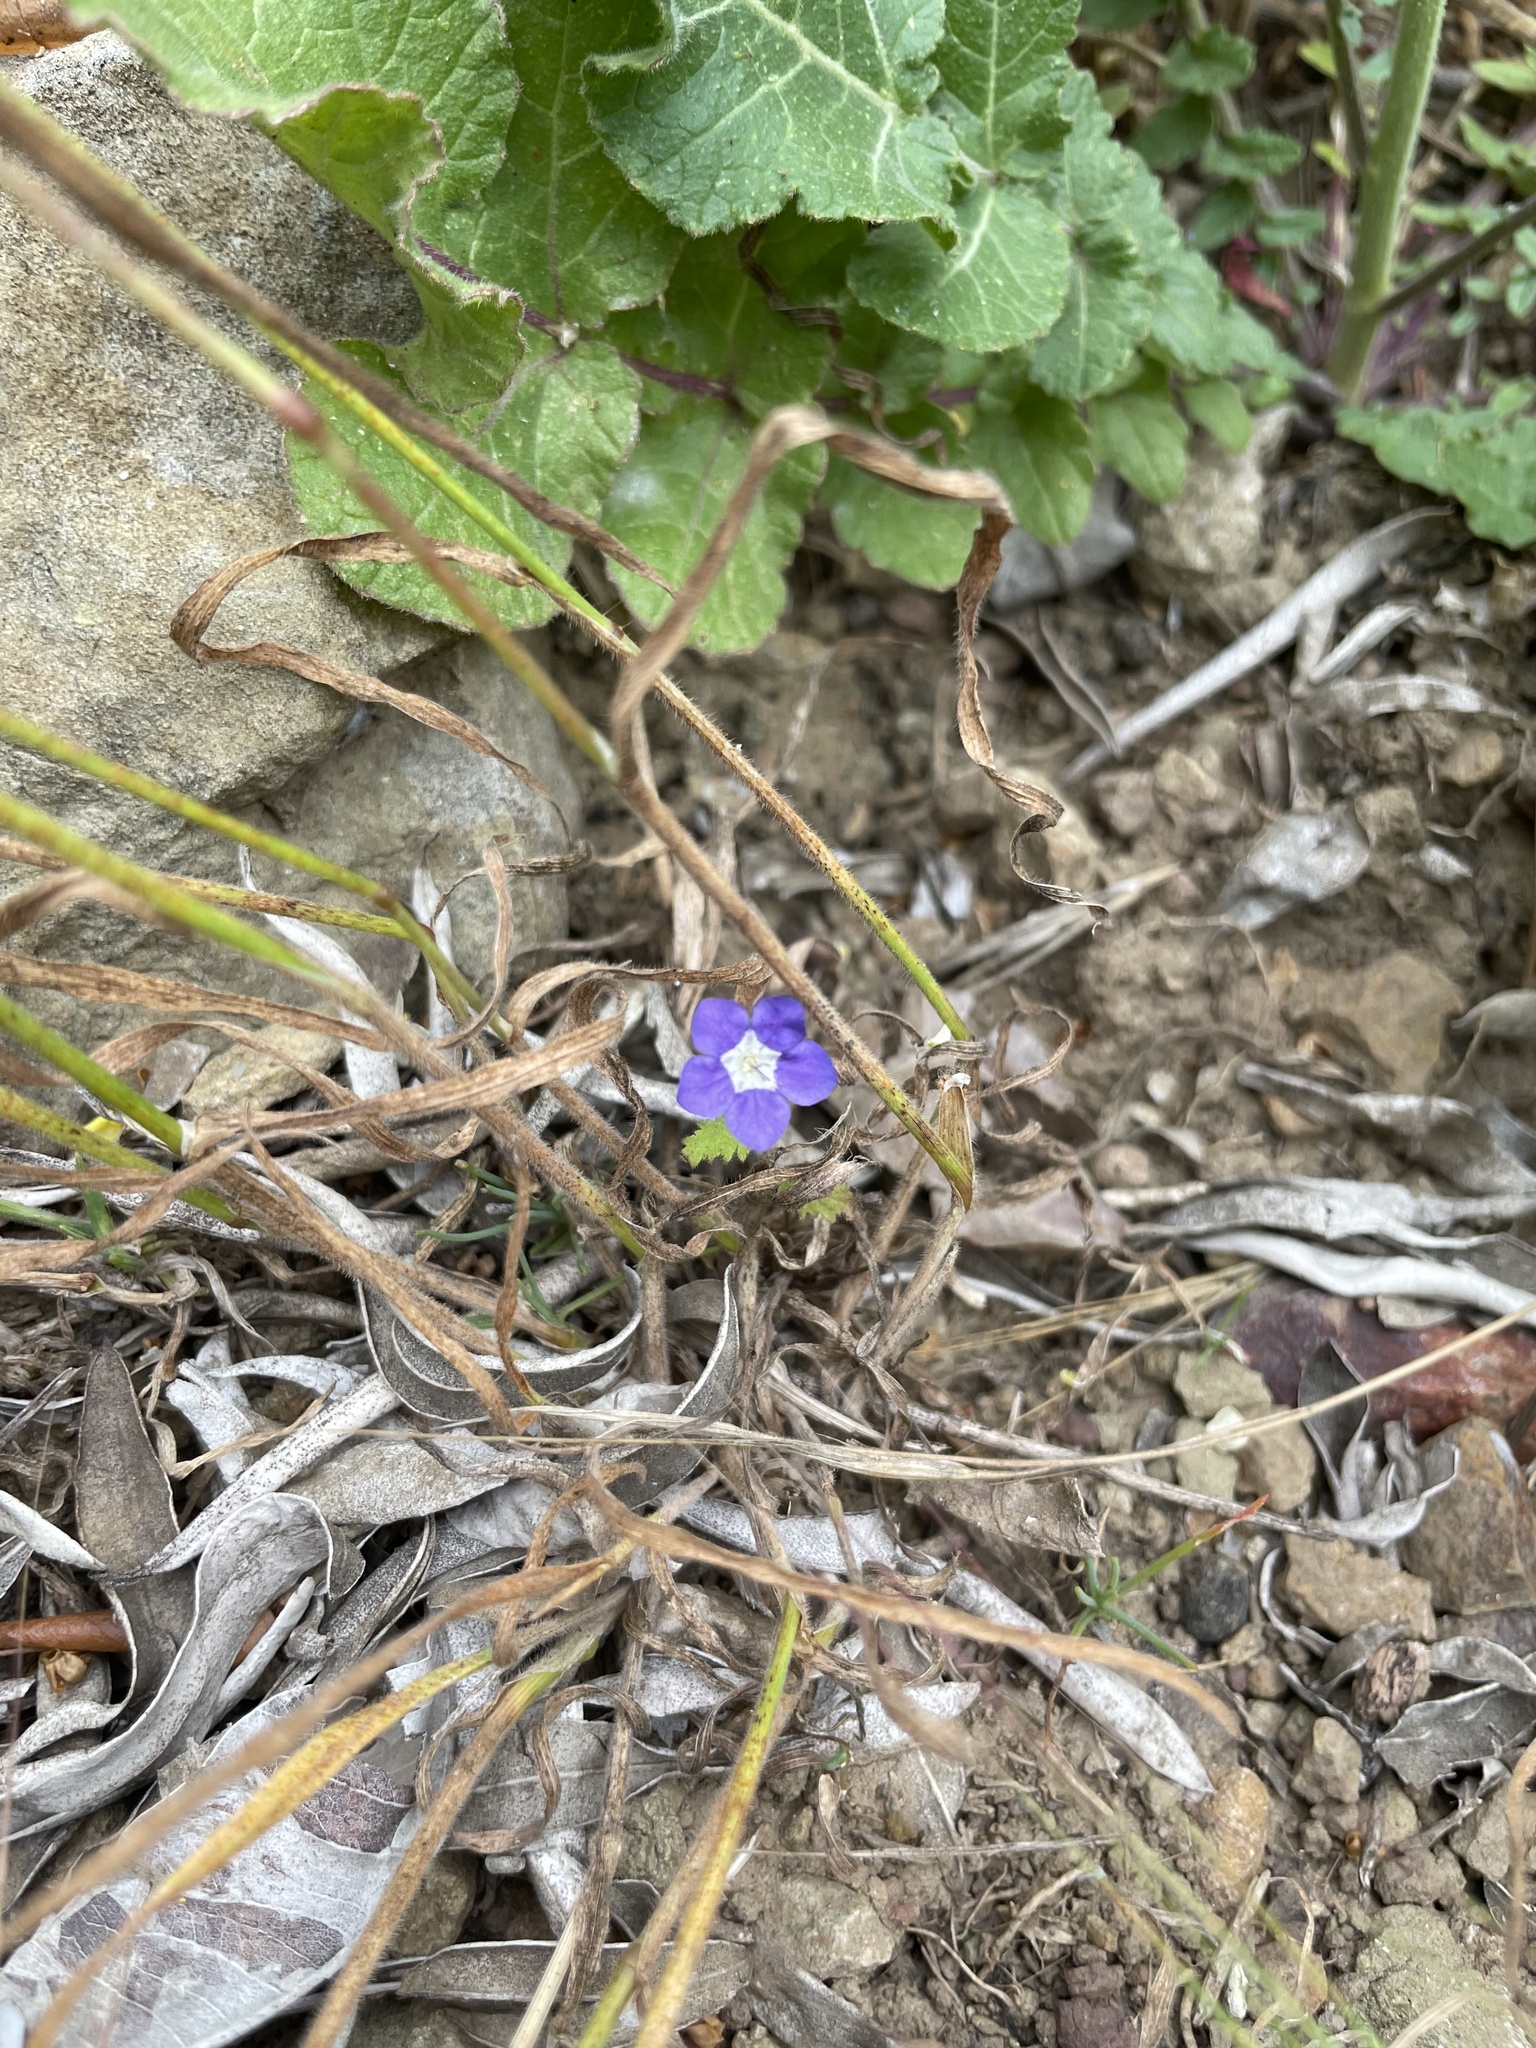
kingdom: Plantae
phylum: Tracheophyta
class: Magnoliopsida
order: Boraginales
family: Hydrophyllaceae
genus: Phacelia
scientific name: Phacelia viscida
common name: Sticky phacelia
